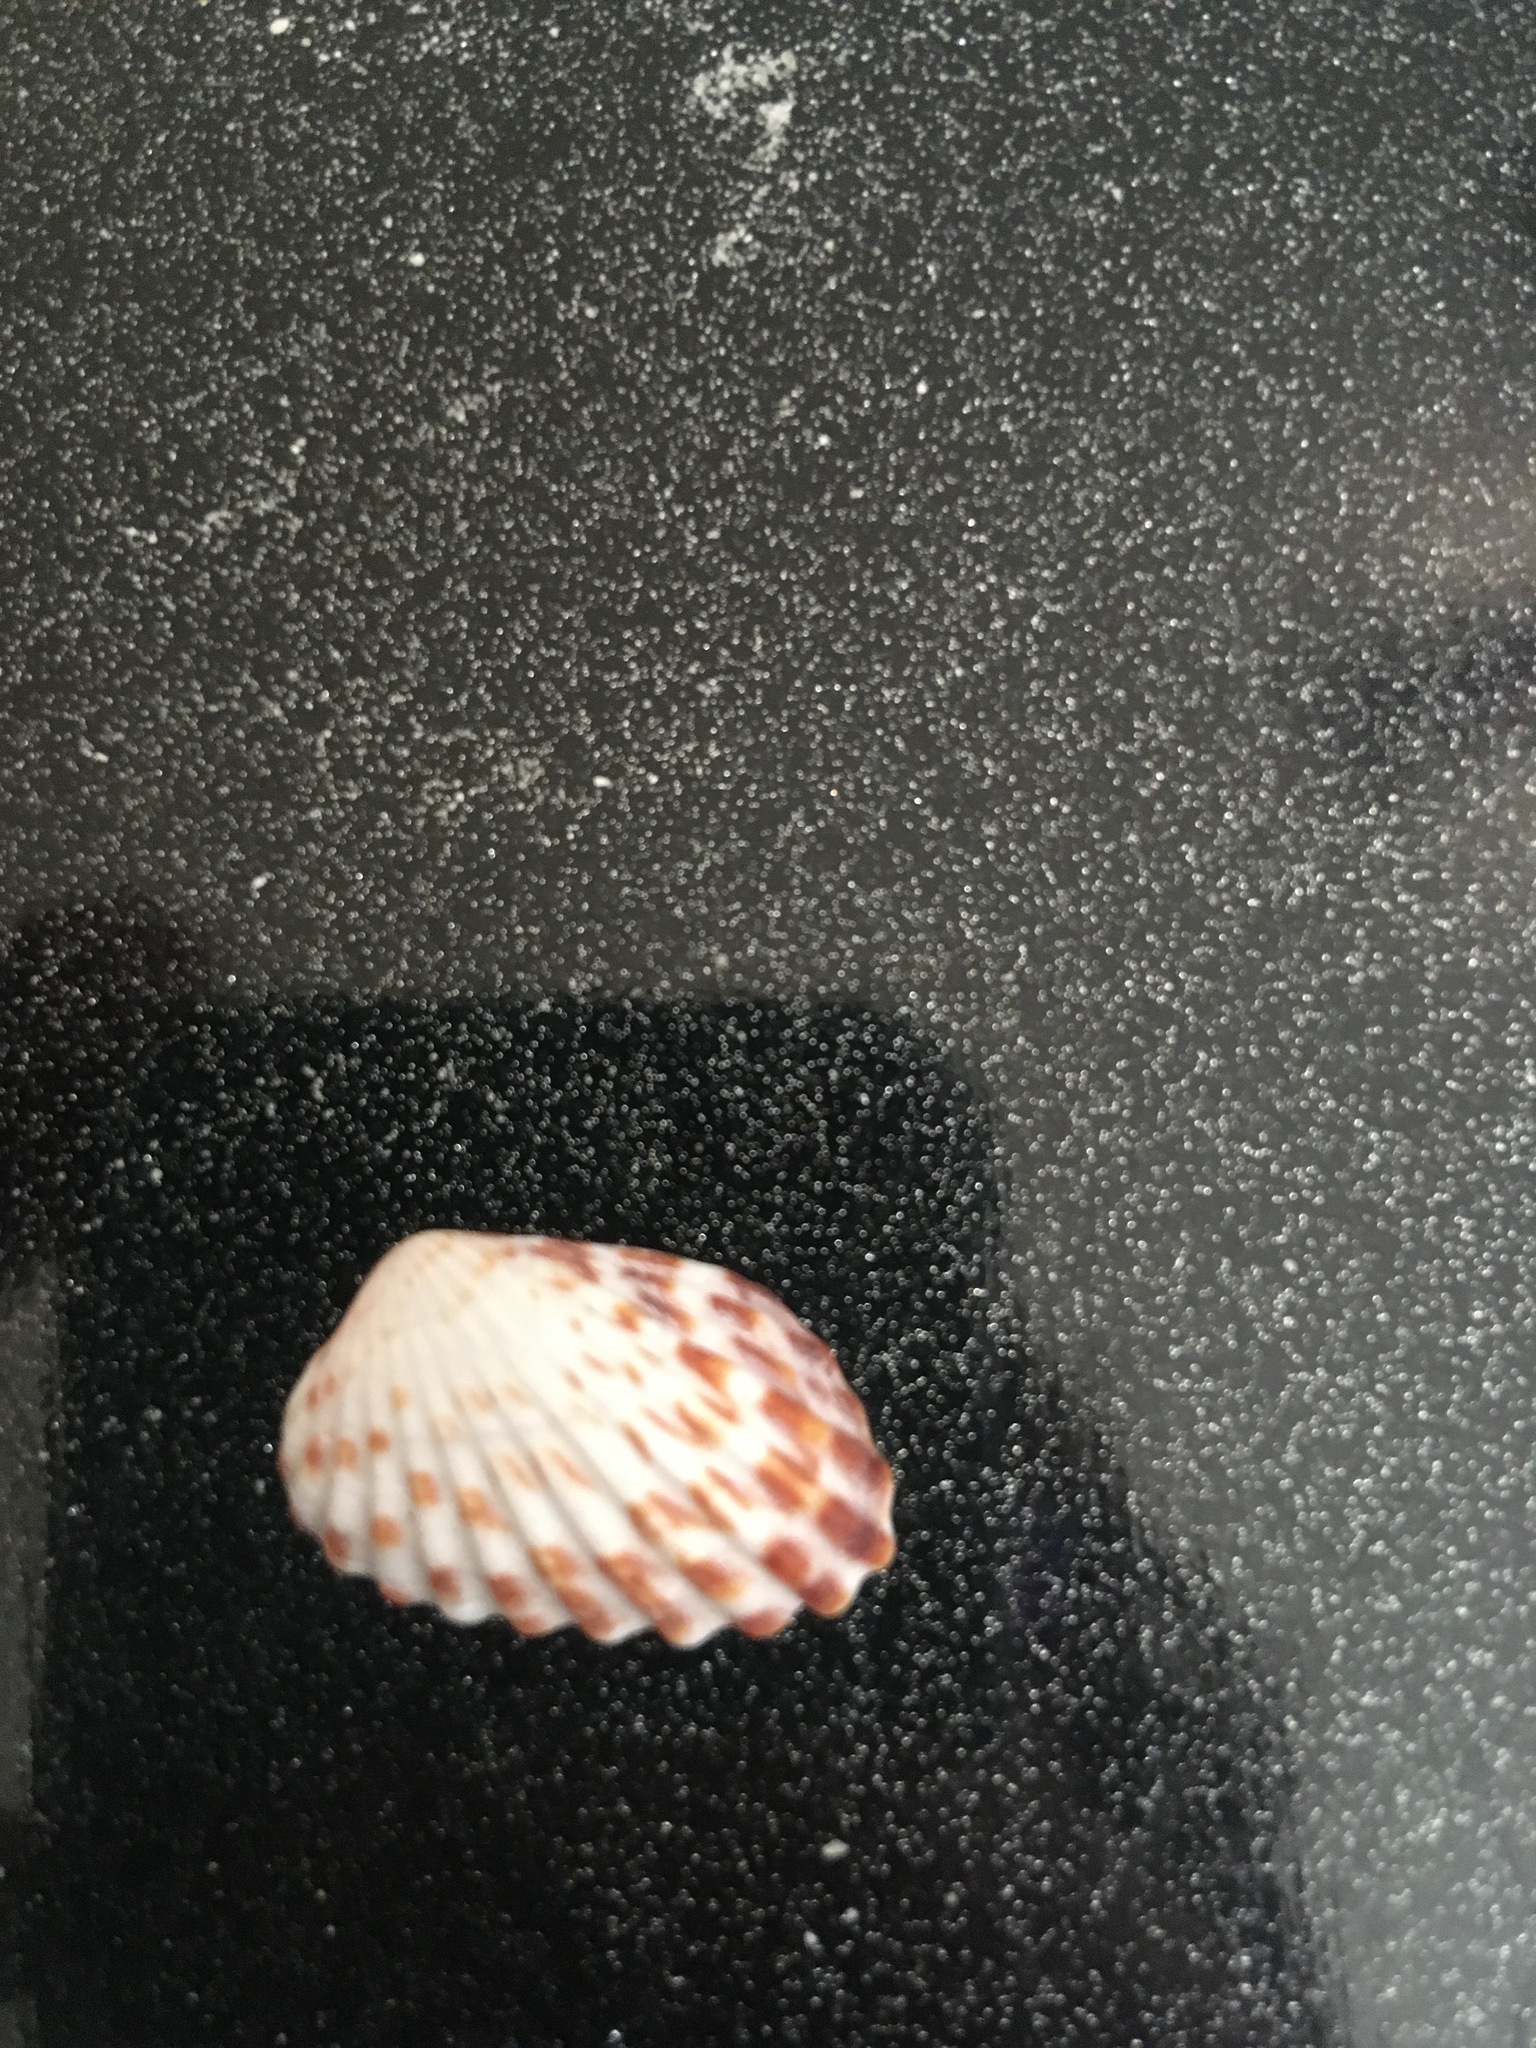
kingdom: Animalia
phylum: Mollusca
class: Bivalvia
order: Carditida
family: Carditidae
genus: Cardites
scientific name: Cardites floridanus
